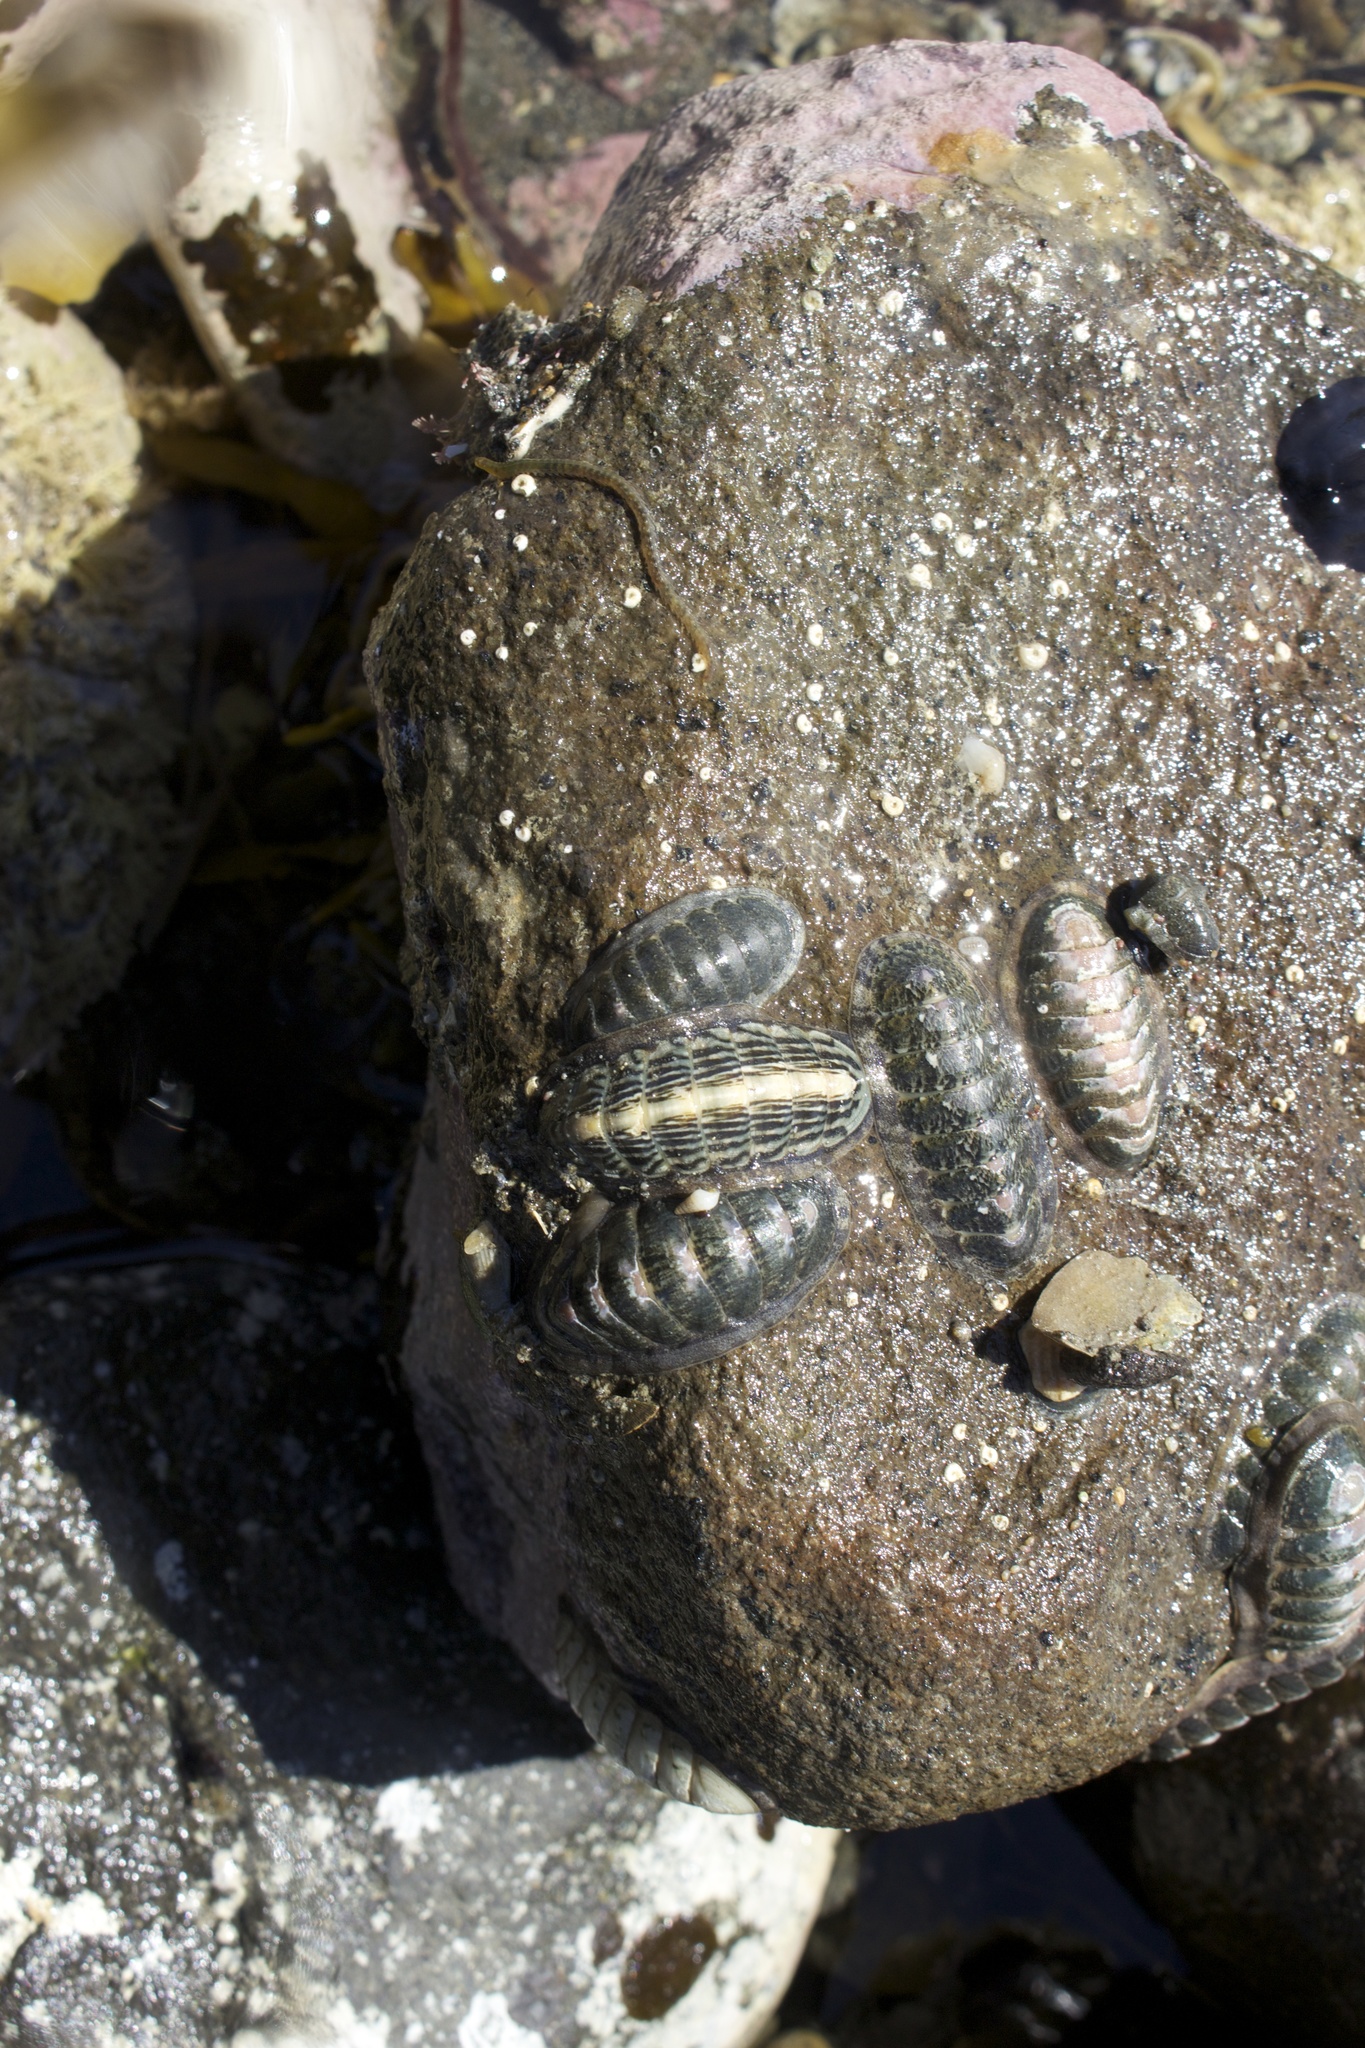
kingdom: Animalia
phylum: Mollusca
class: Polyplacophora
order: Chitonida
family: Ischnochitonidae
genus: Ischnochiton
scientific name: Ischnochiton maorianus
